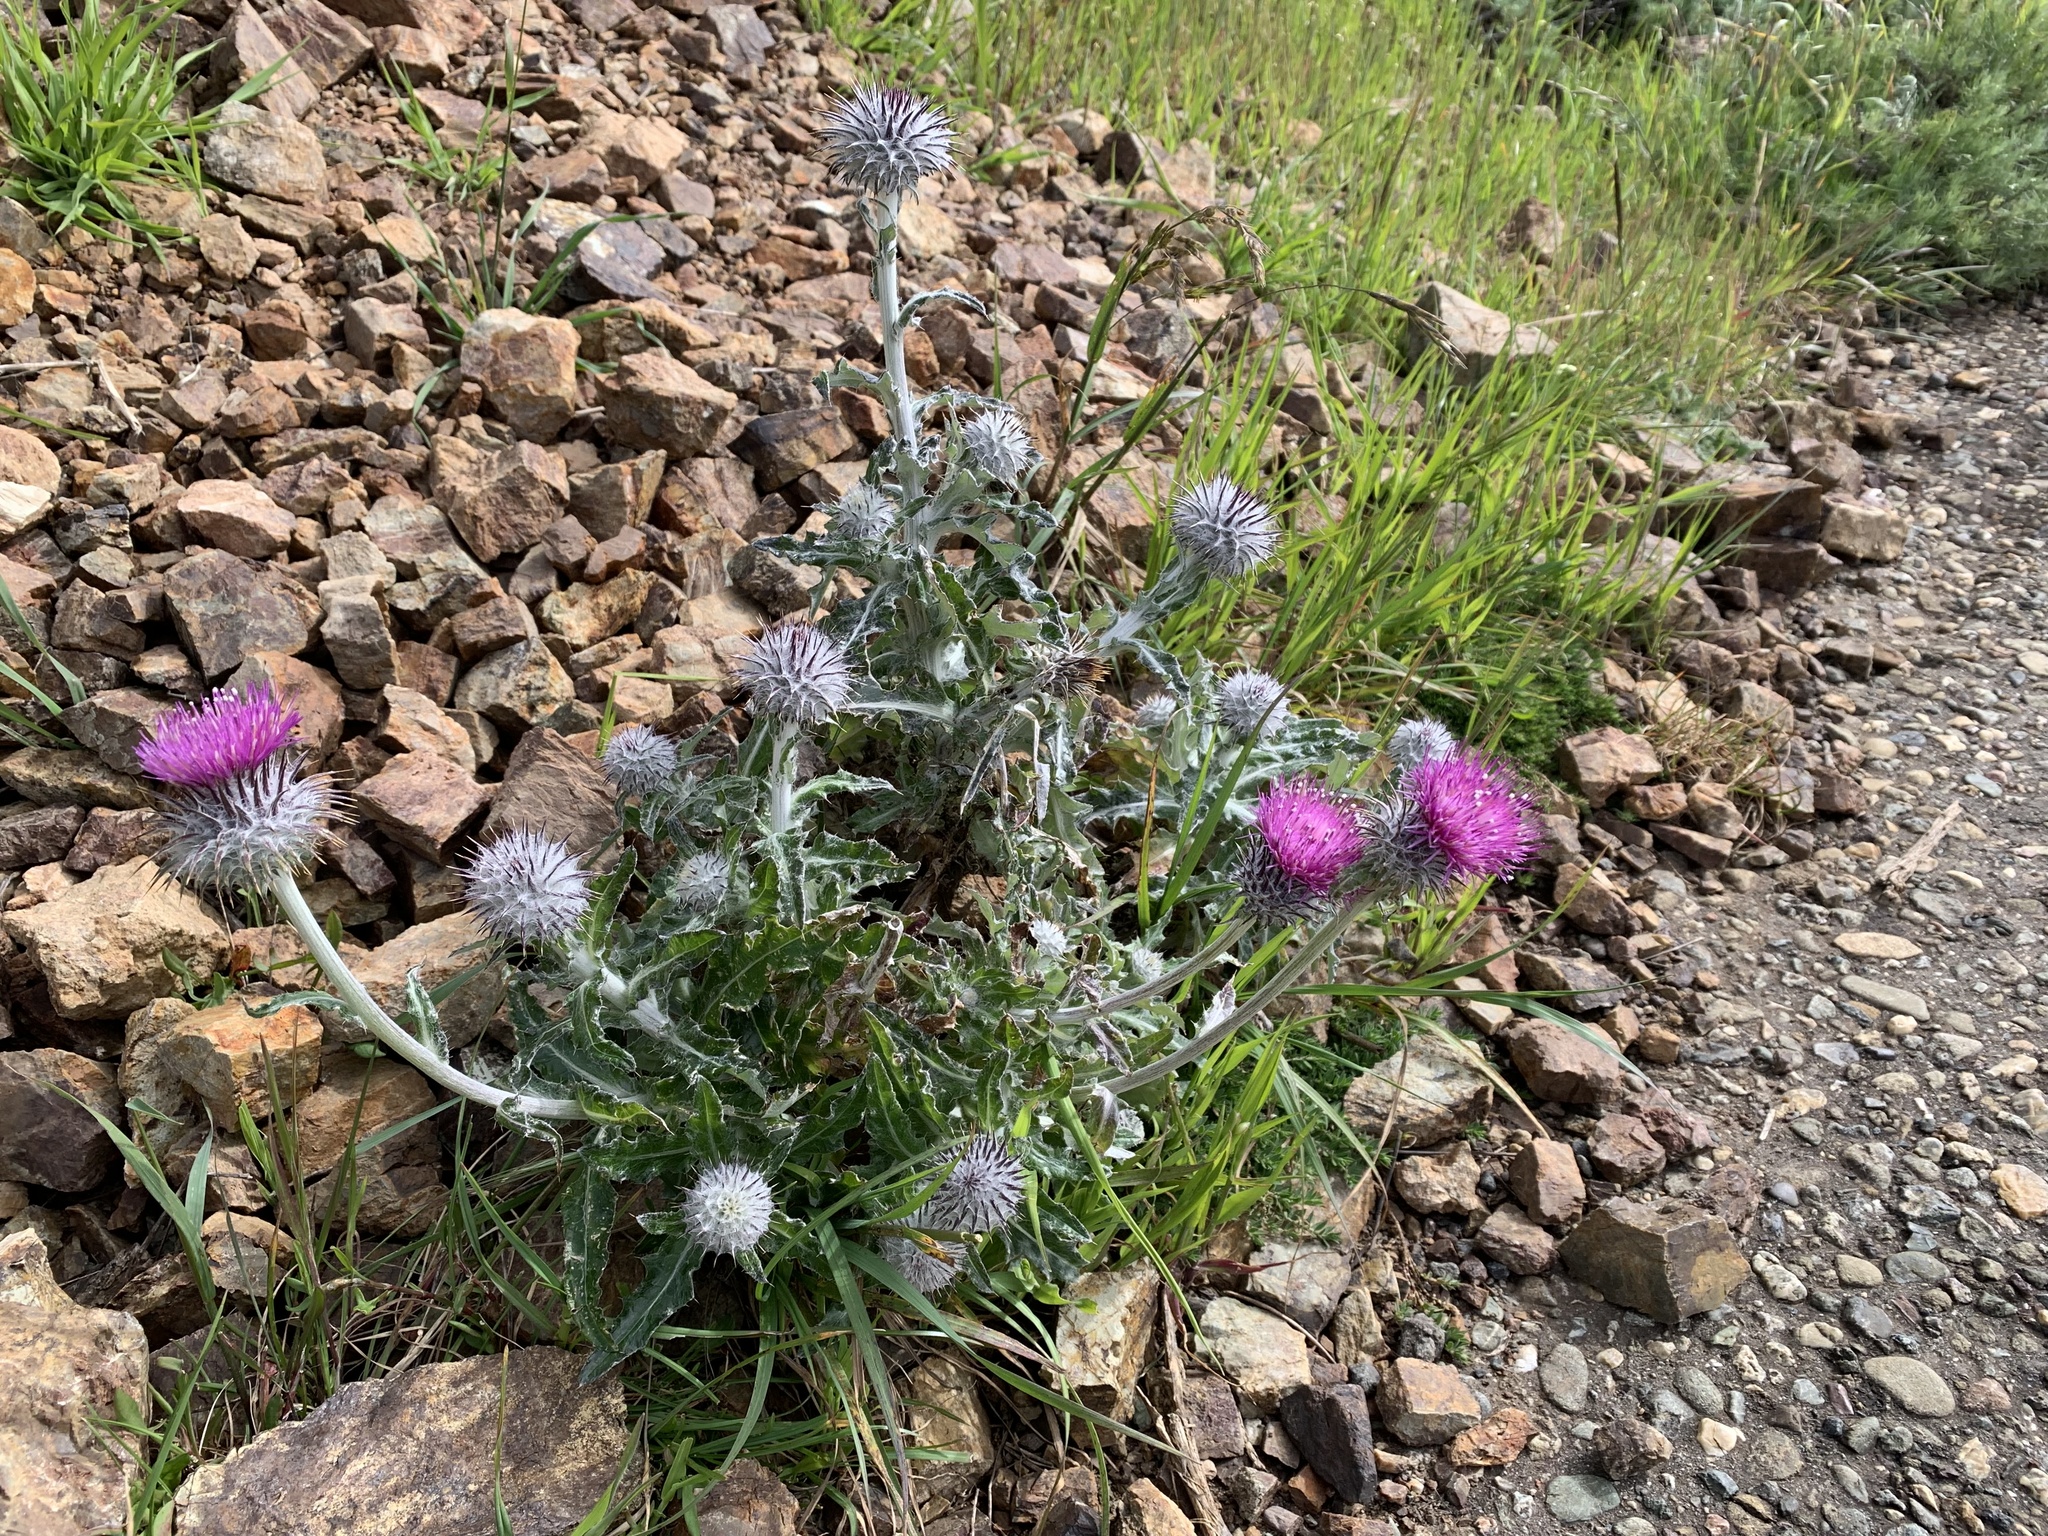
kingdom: Plantae
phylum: Tracheophyta
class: Magnoliopsida
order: Asterales
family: Asteraceae
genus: Cirsium
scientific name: Cirsium occidentale
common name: Western thistle
